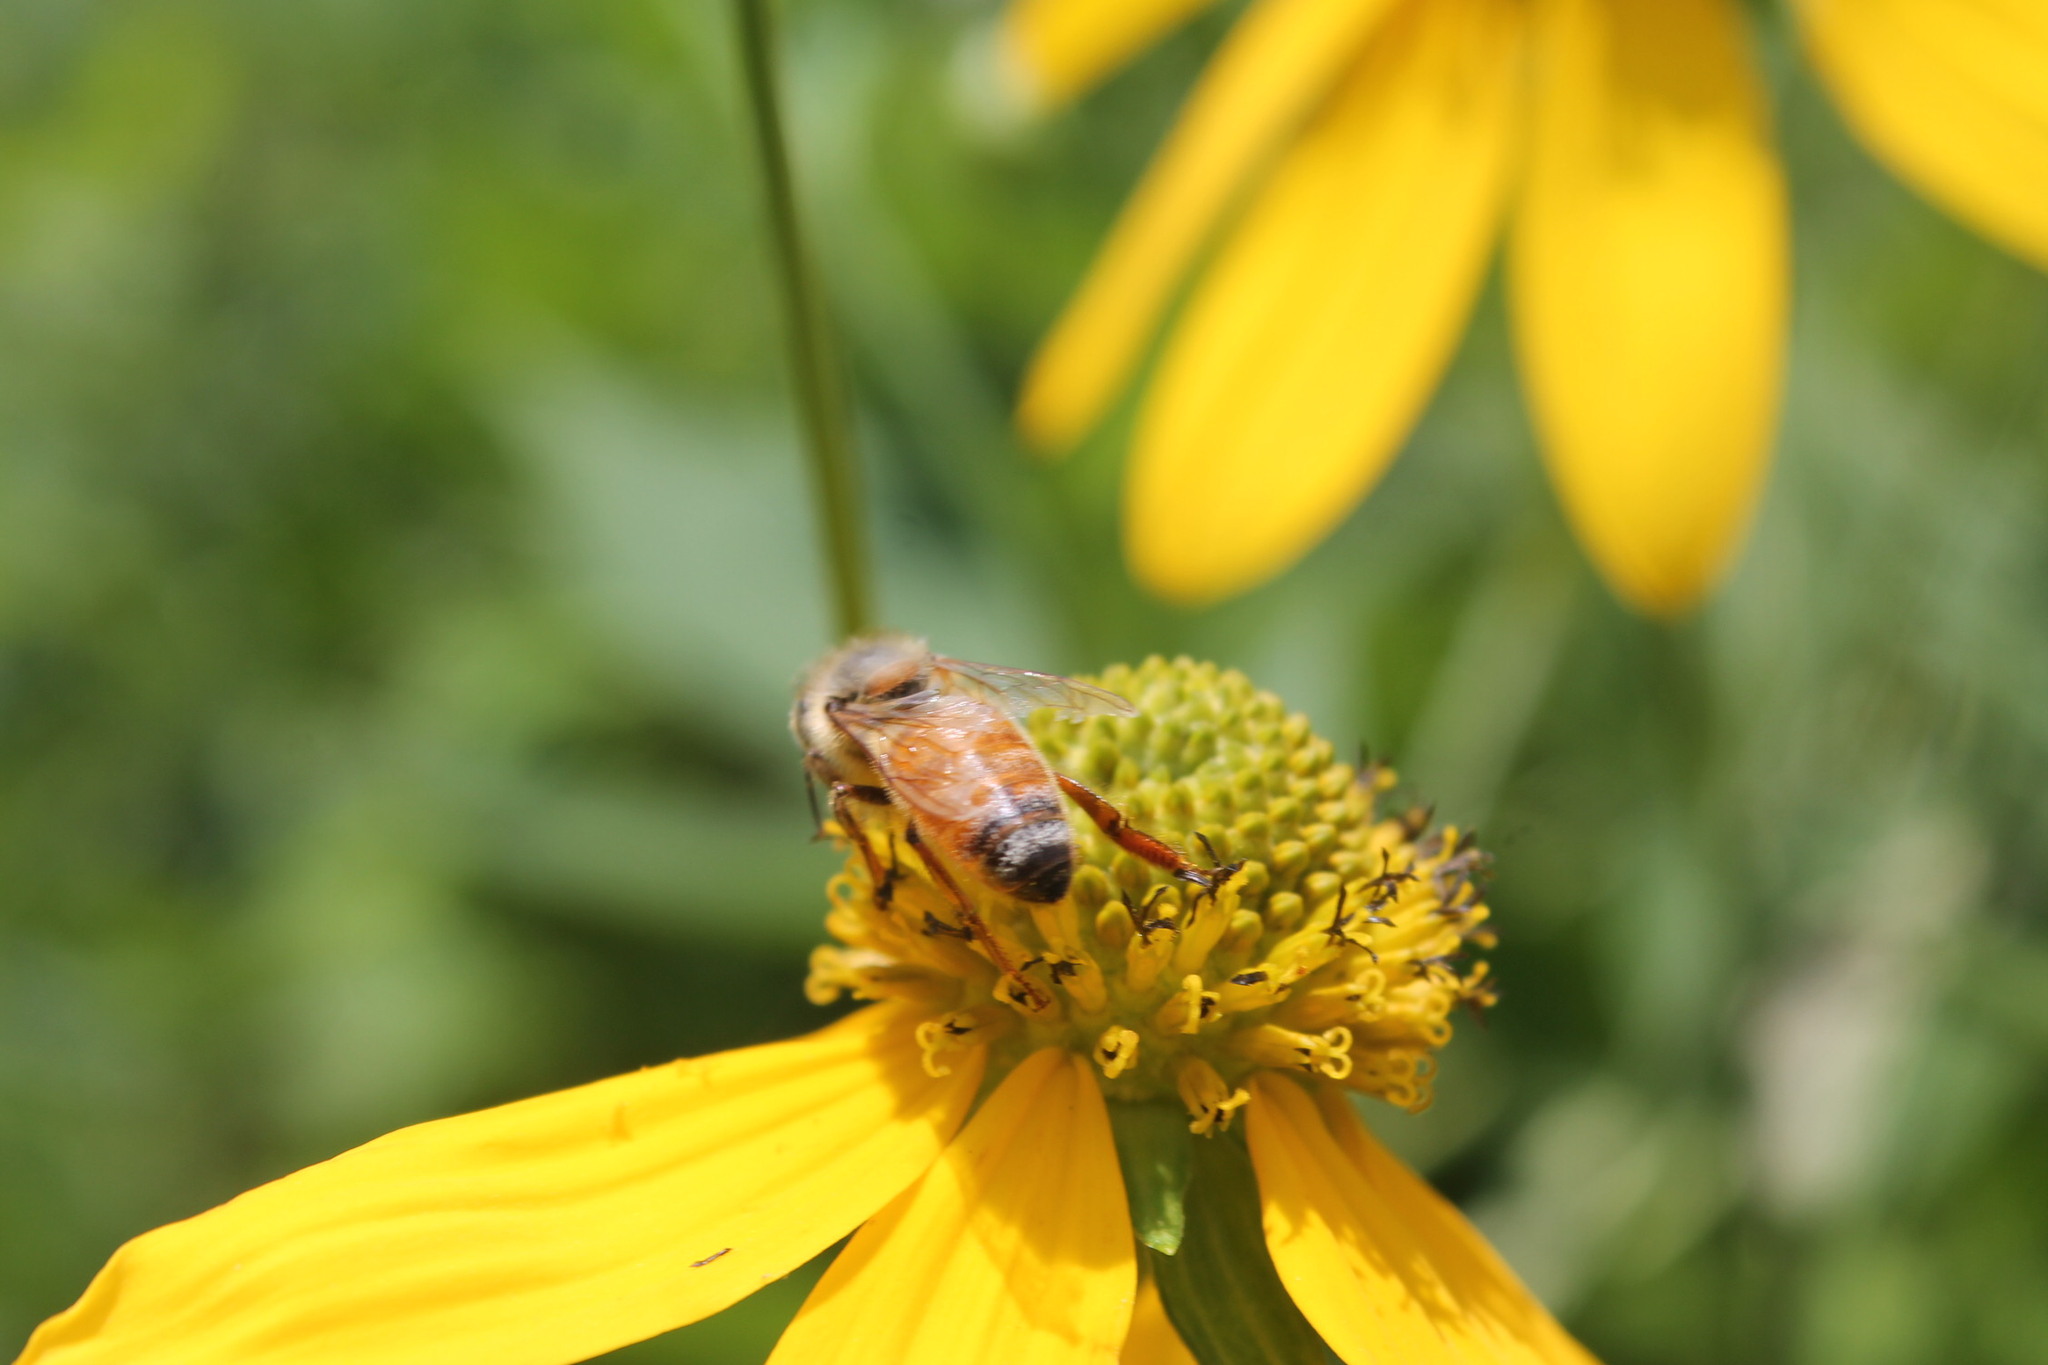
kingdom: Animalia
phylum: Arthropoda
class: Insecta
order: Hymenoptera
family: Apidae
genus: Apis
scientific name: Apis mellifera
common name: Honey bee
